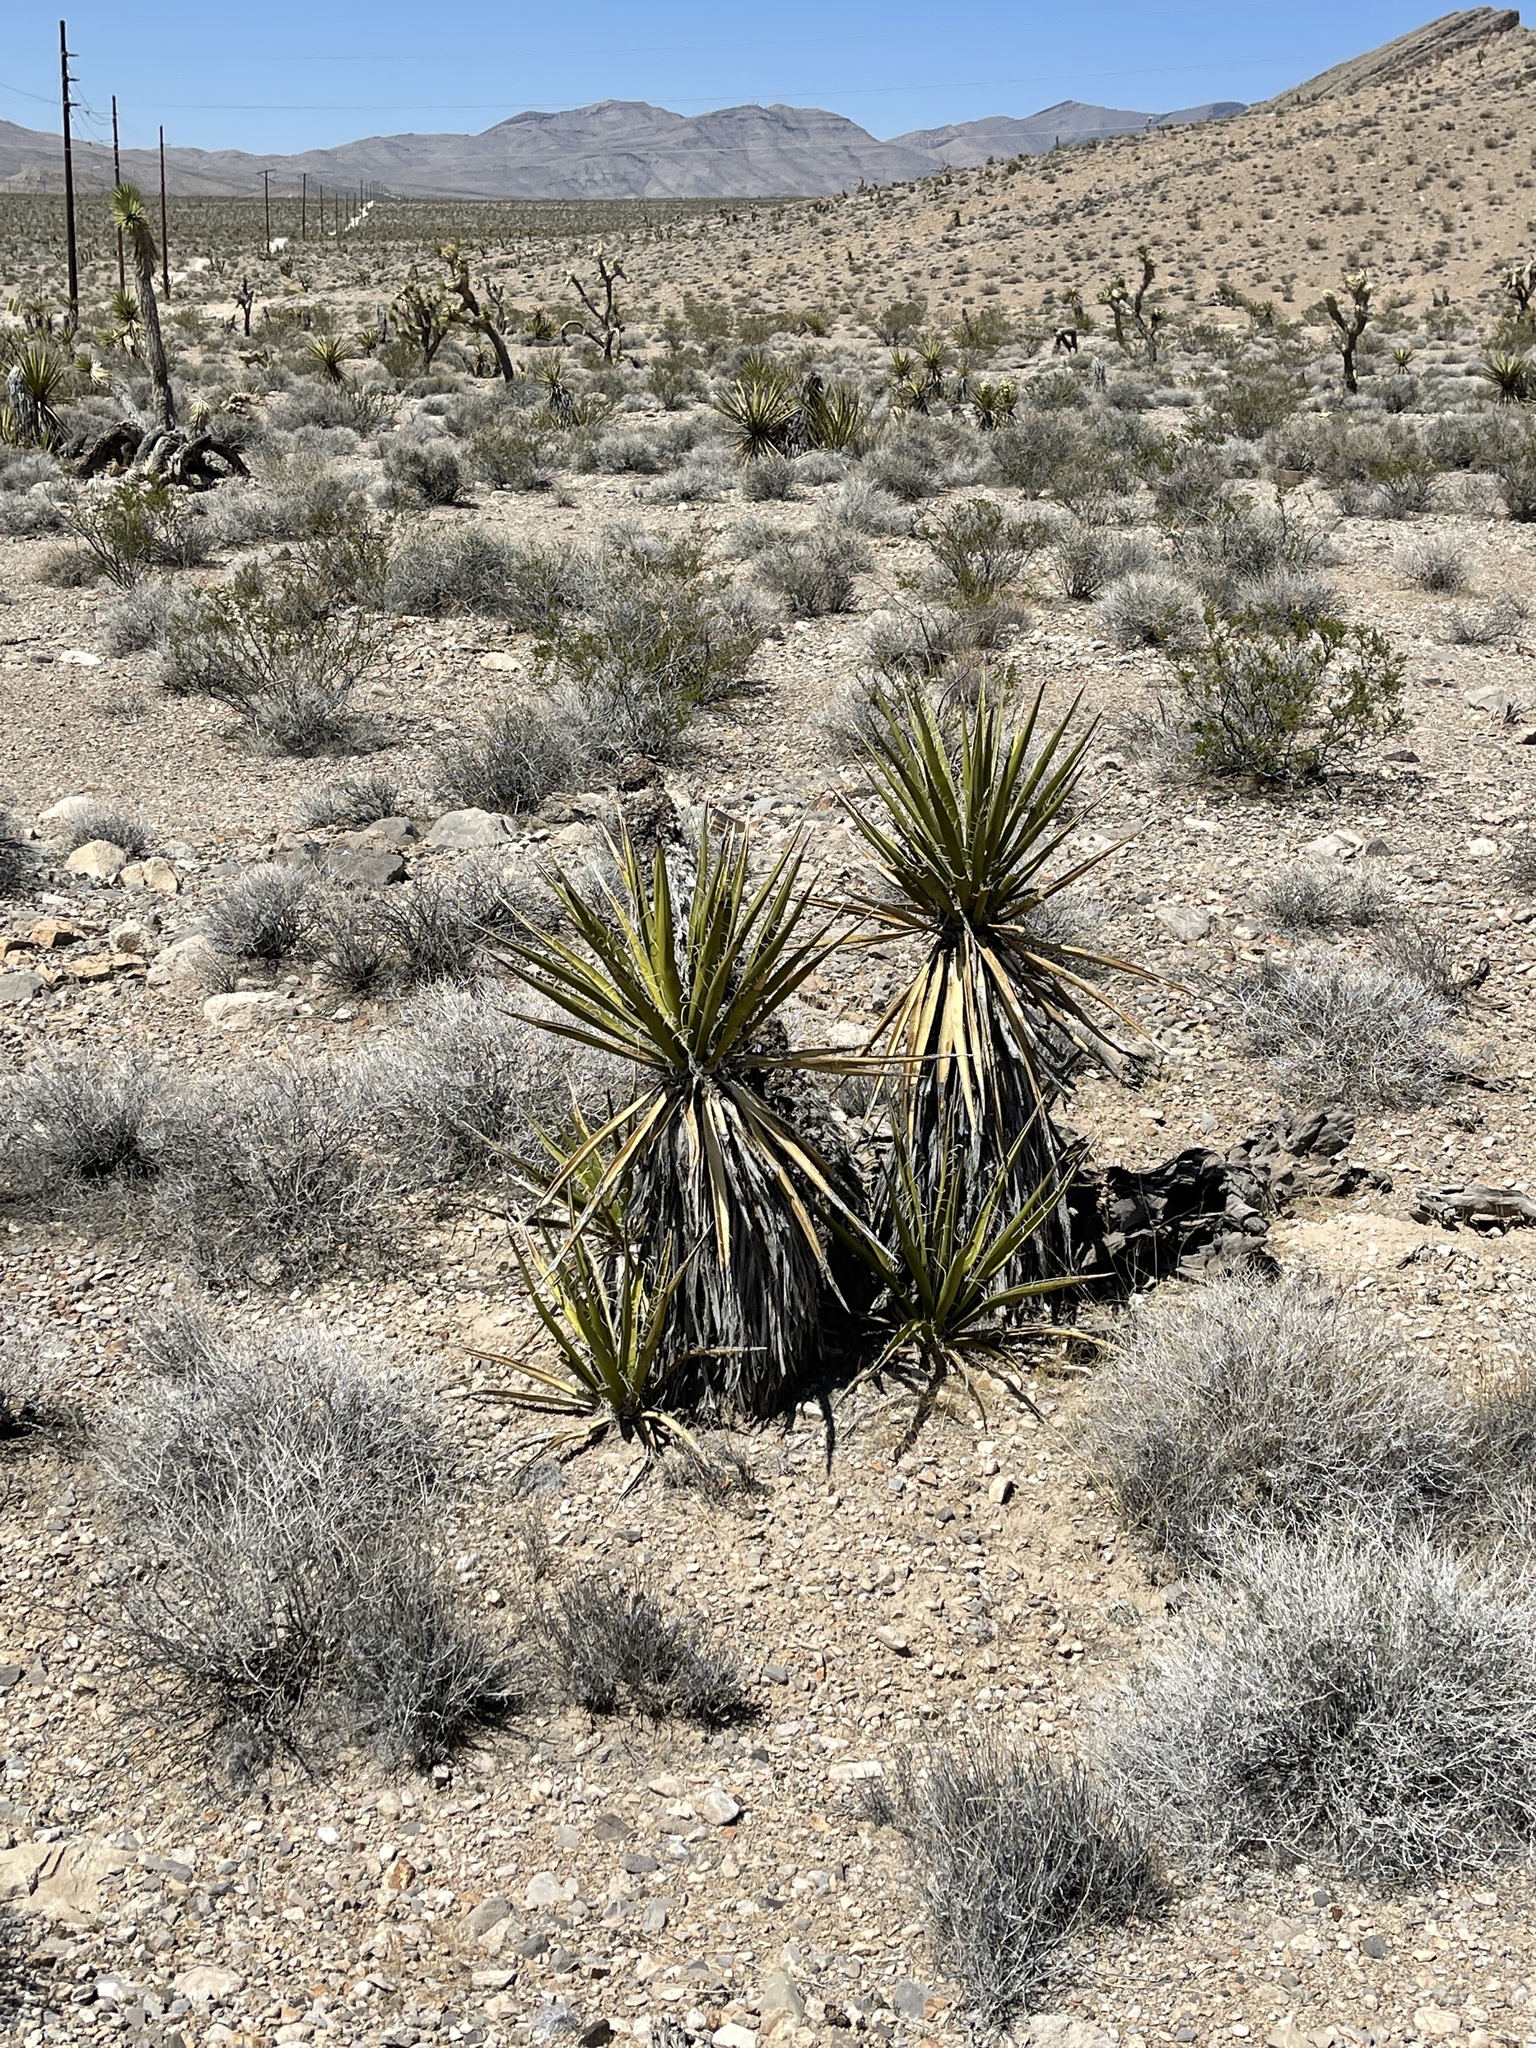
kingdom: Plantae
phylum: Tracheophyta
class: Liliopsida
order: Asparagales
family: Asparagaceae
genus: Yucca
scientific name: Yucca schidigera
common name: Mojave yucca
